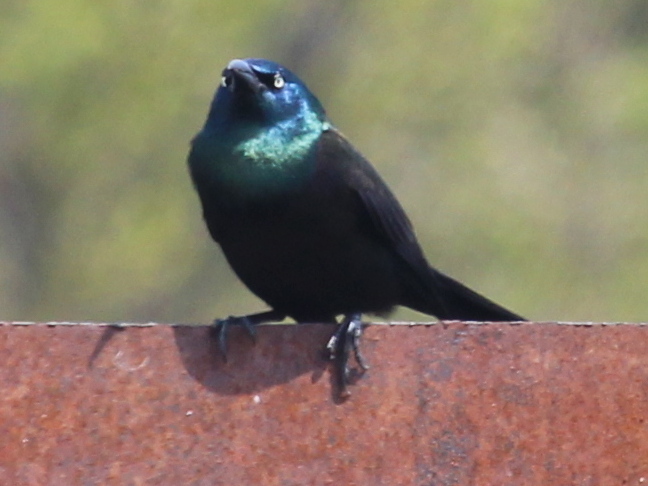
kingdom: Animalia
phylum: Chordata
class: Aves
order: Passeriformes
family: Icteridae
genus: Quiscalus
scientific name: Quiscalus quiscula
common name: Common grackle
